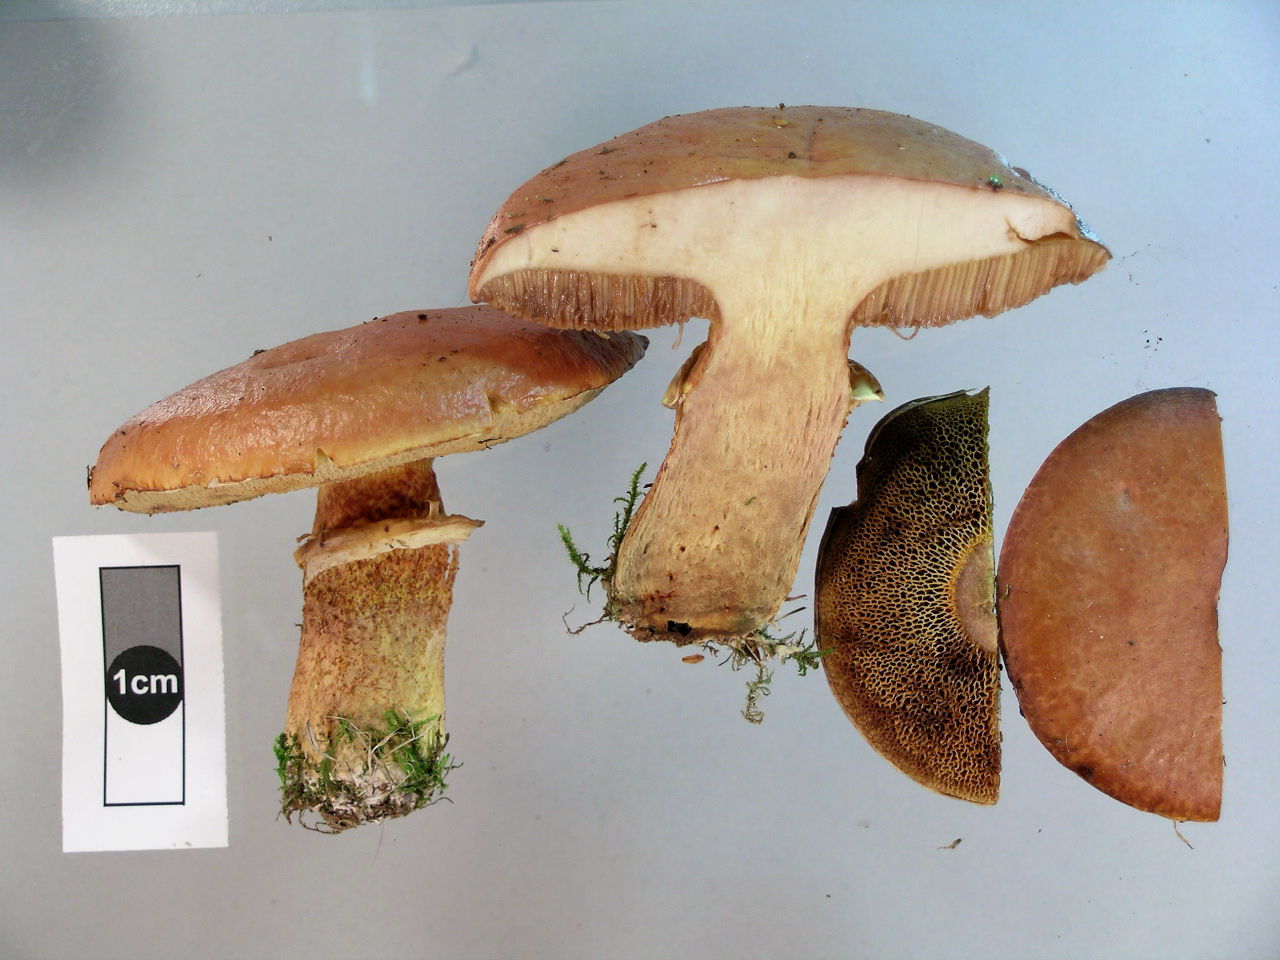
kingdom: Fungi
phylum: Basidiomycota
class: Agaricomycetes
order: Boletales
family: Suillaceae
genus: Suillus
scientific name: Suillus grevillei
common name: Larch bolete
